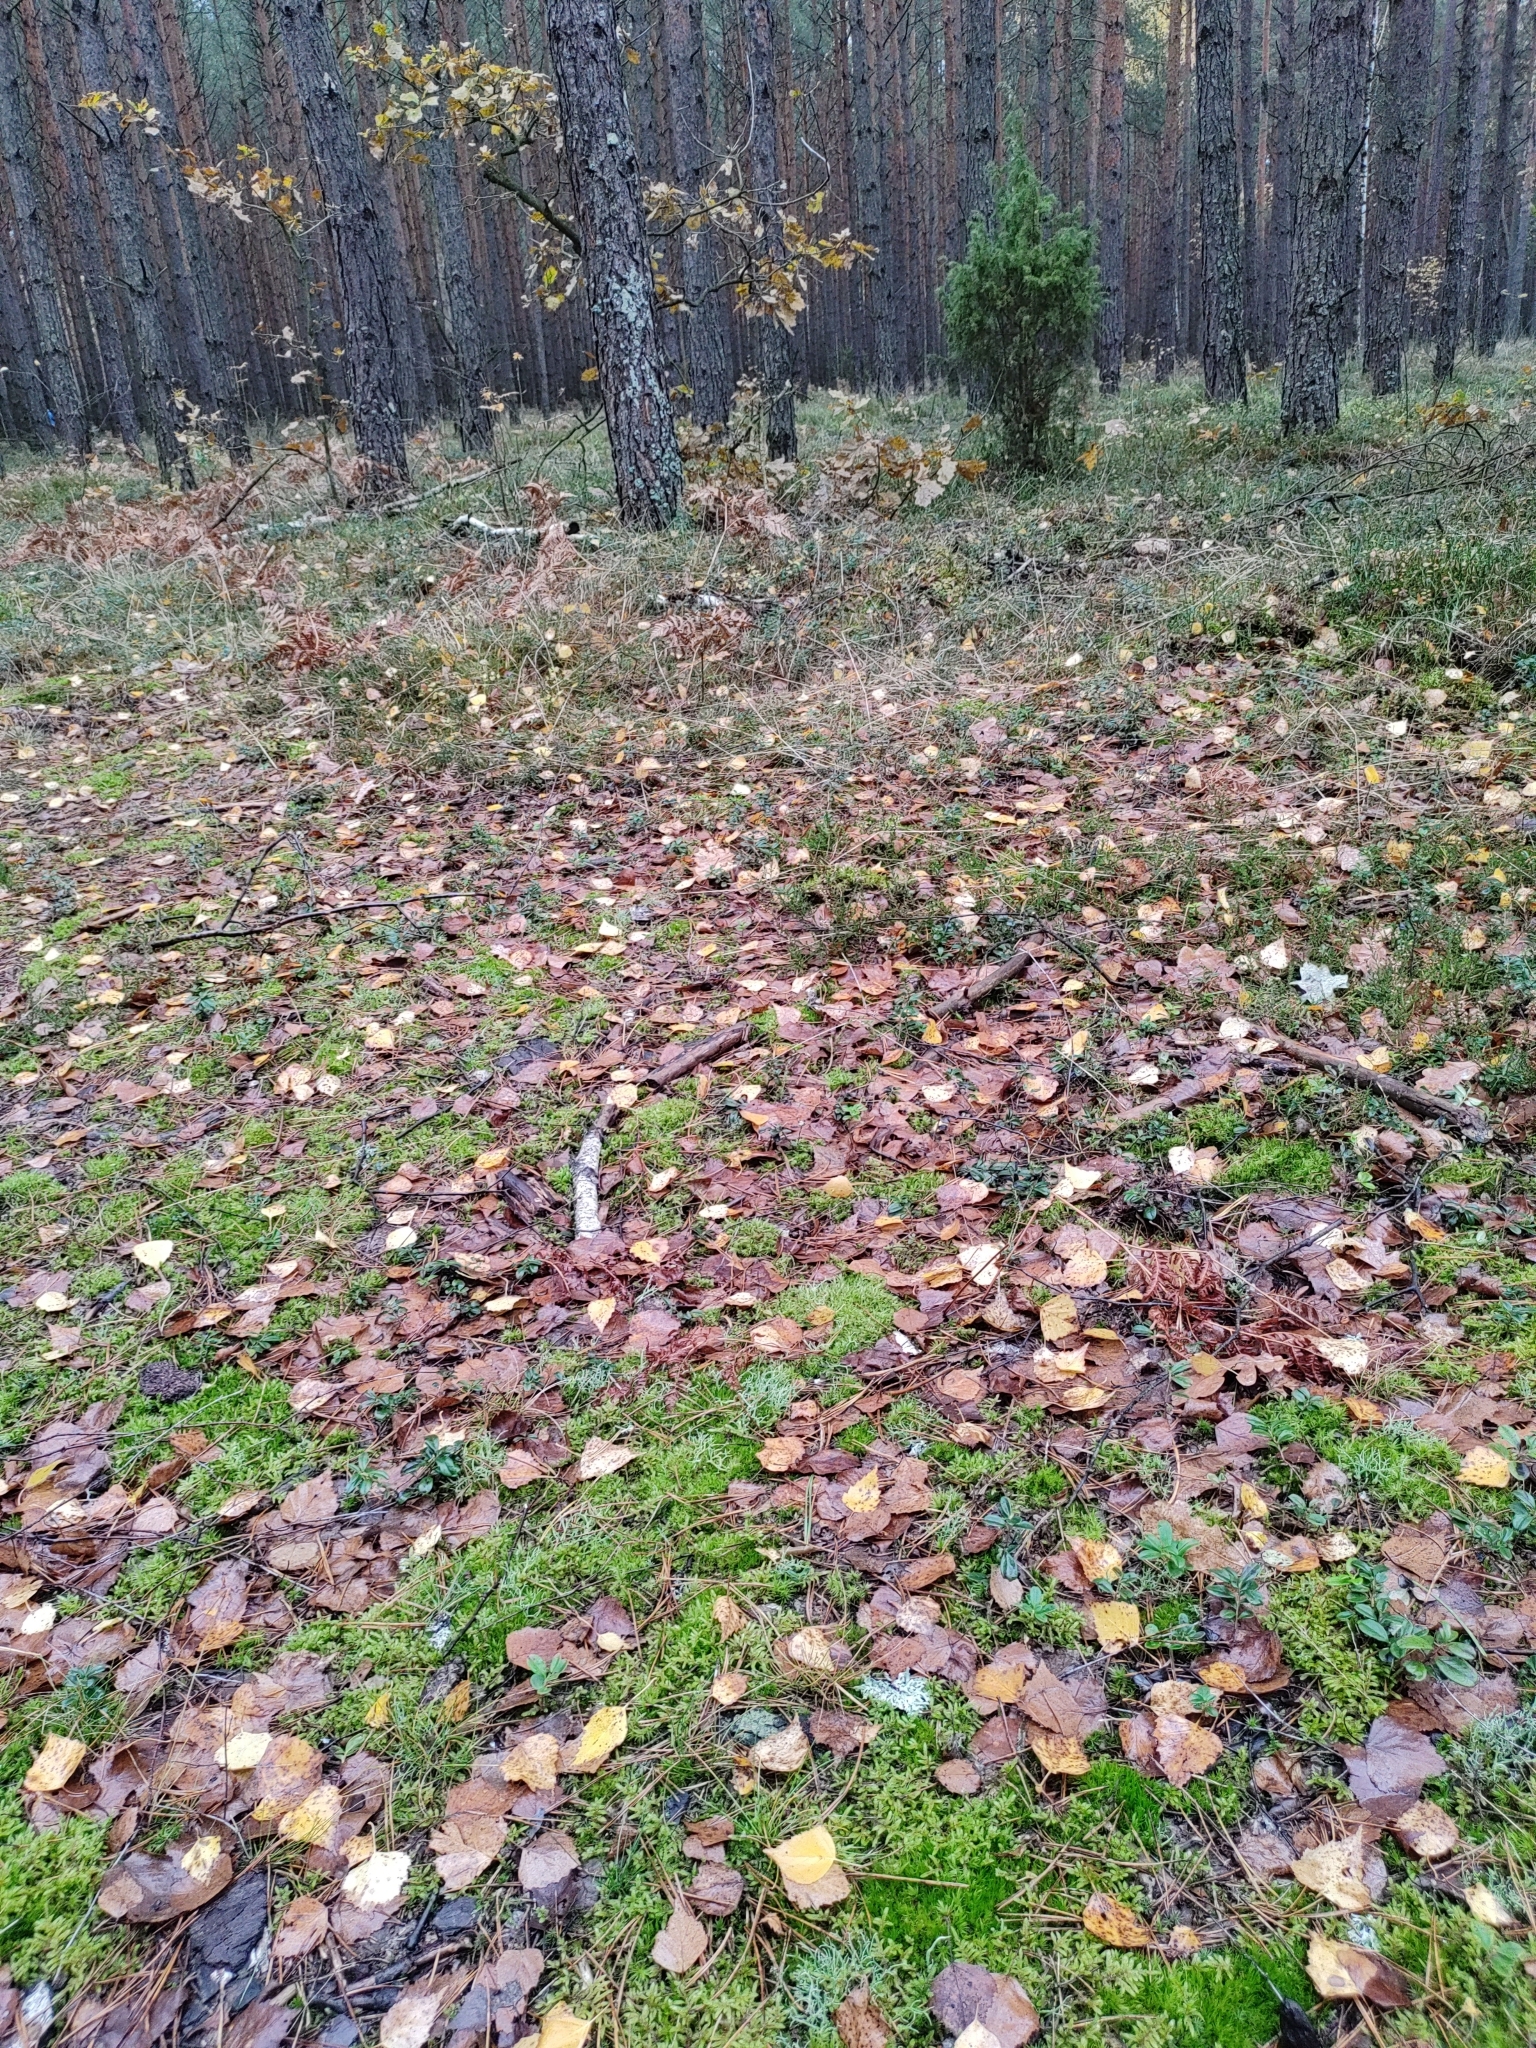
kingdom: Fungi
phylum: Ascomycota
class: Lecanoromycetes
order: Lecanorales
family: Cladoniaceae
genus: Cladonia
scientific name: Cladonia furcata
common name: Many-forked cladonia
